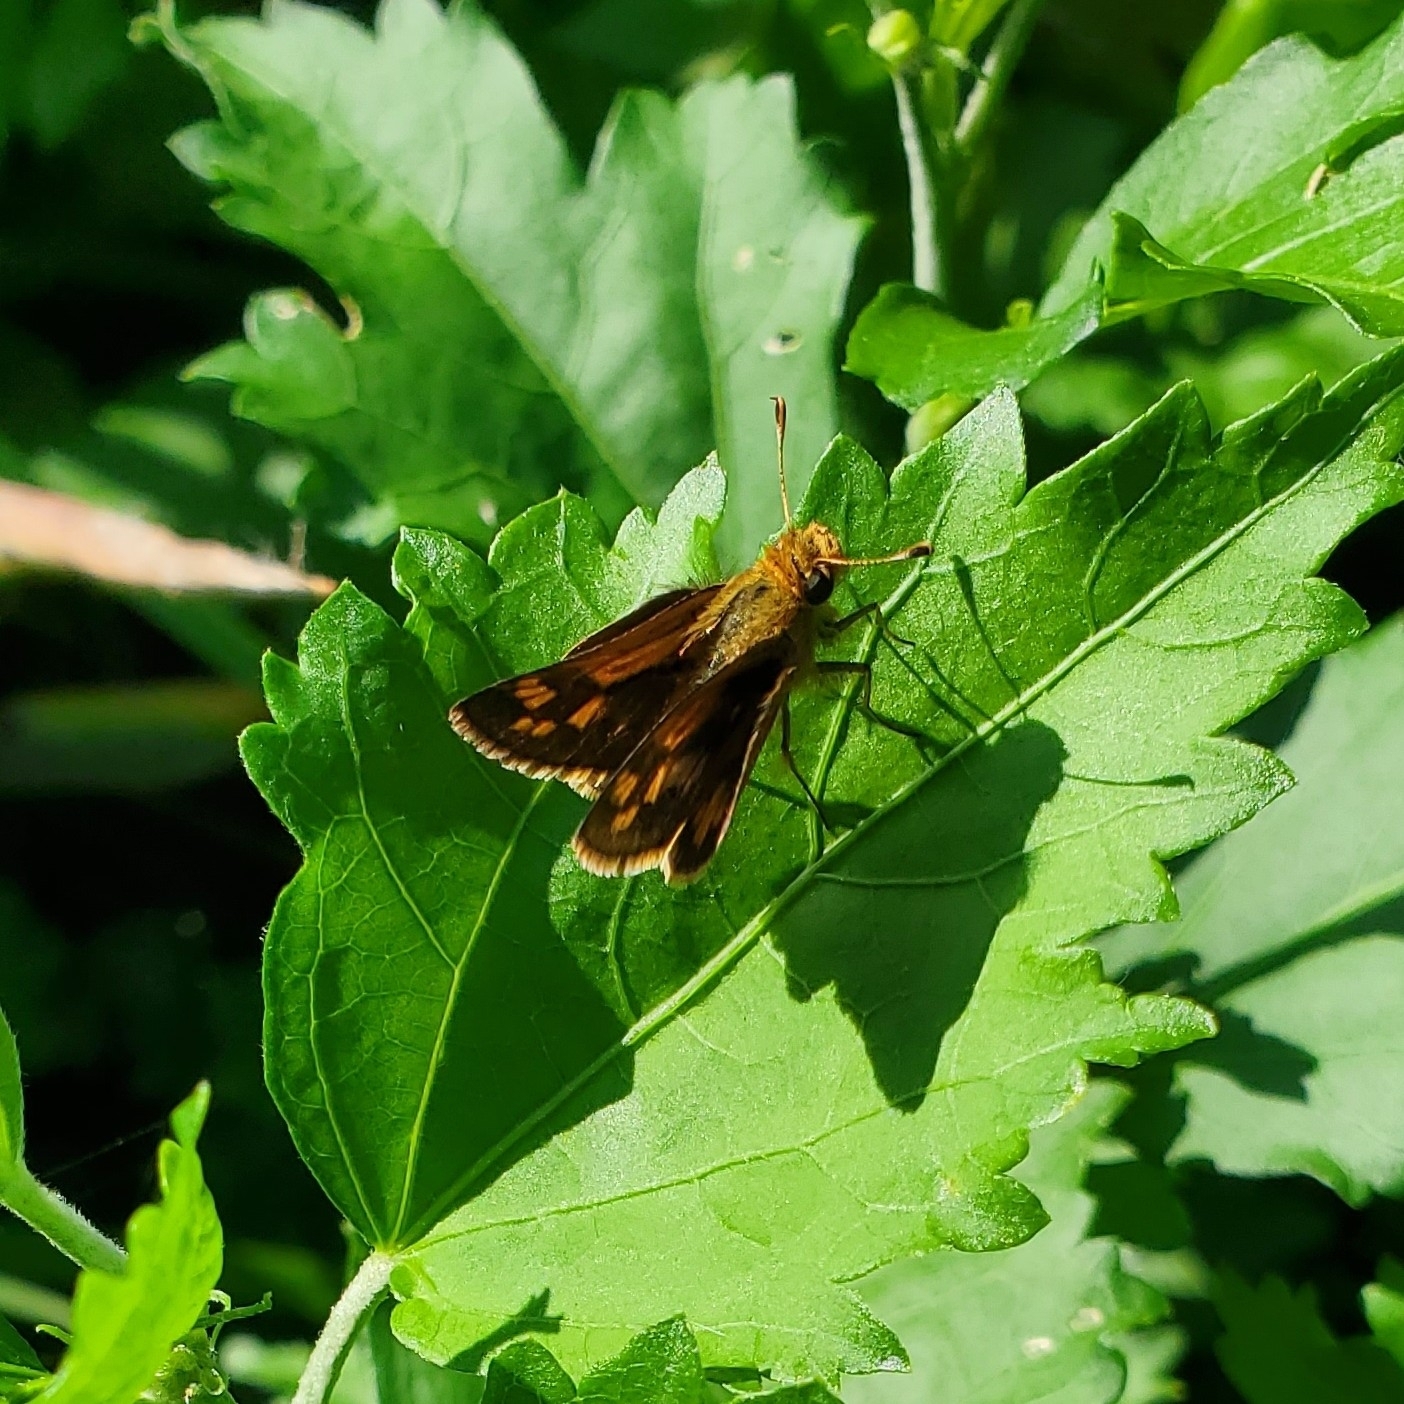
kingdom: Animalia
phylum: Arthropoda
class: Insecta
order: Lepidoptera
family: Hesperiidae
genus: Polites
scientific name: Polites coras
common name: Peck's skipper
